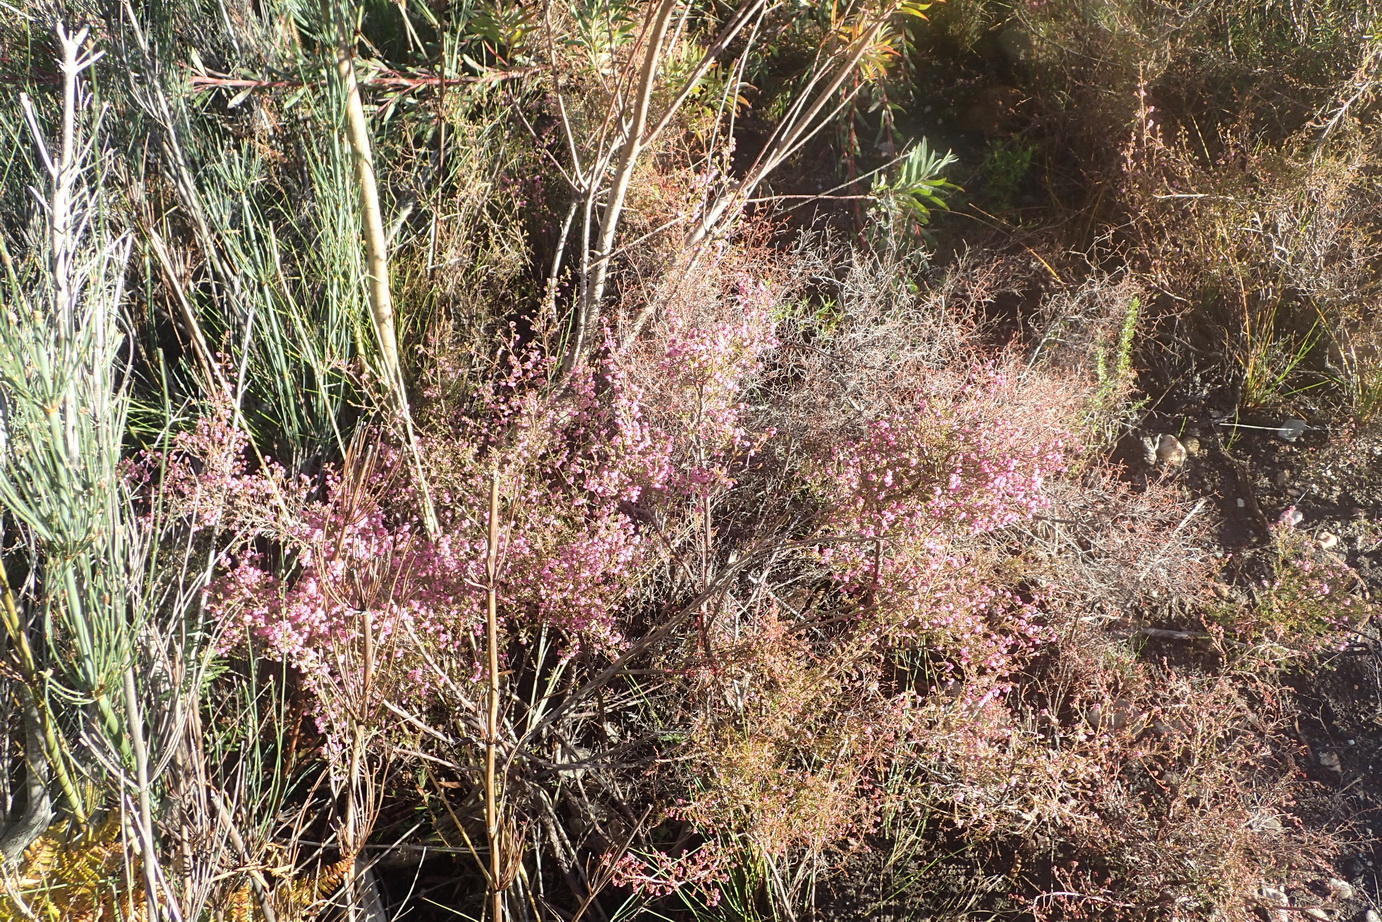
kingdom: Plantae
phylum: Tracheophyta
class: Magnoliopsida
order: Ericales
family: Ericaceae
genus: Erica
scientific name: Erica quadrangularis
